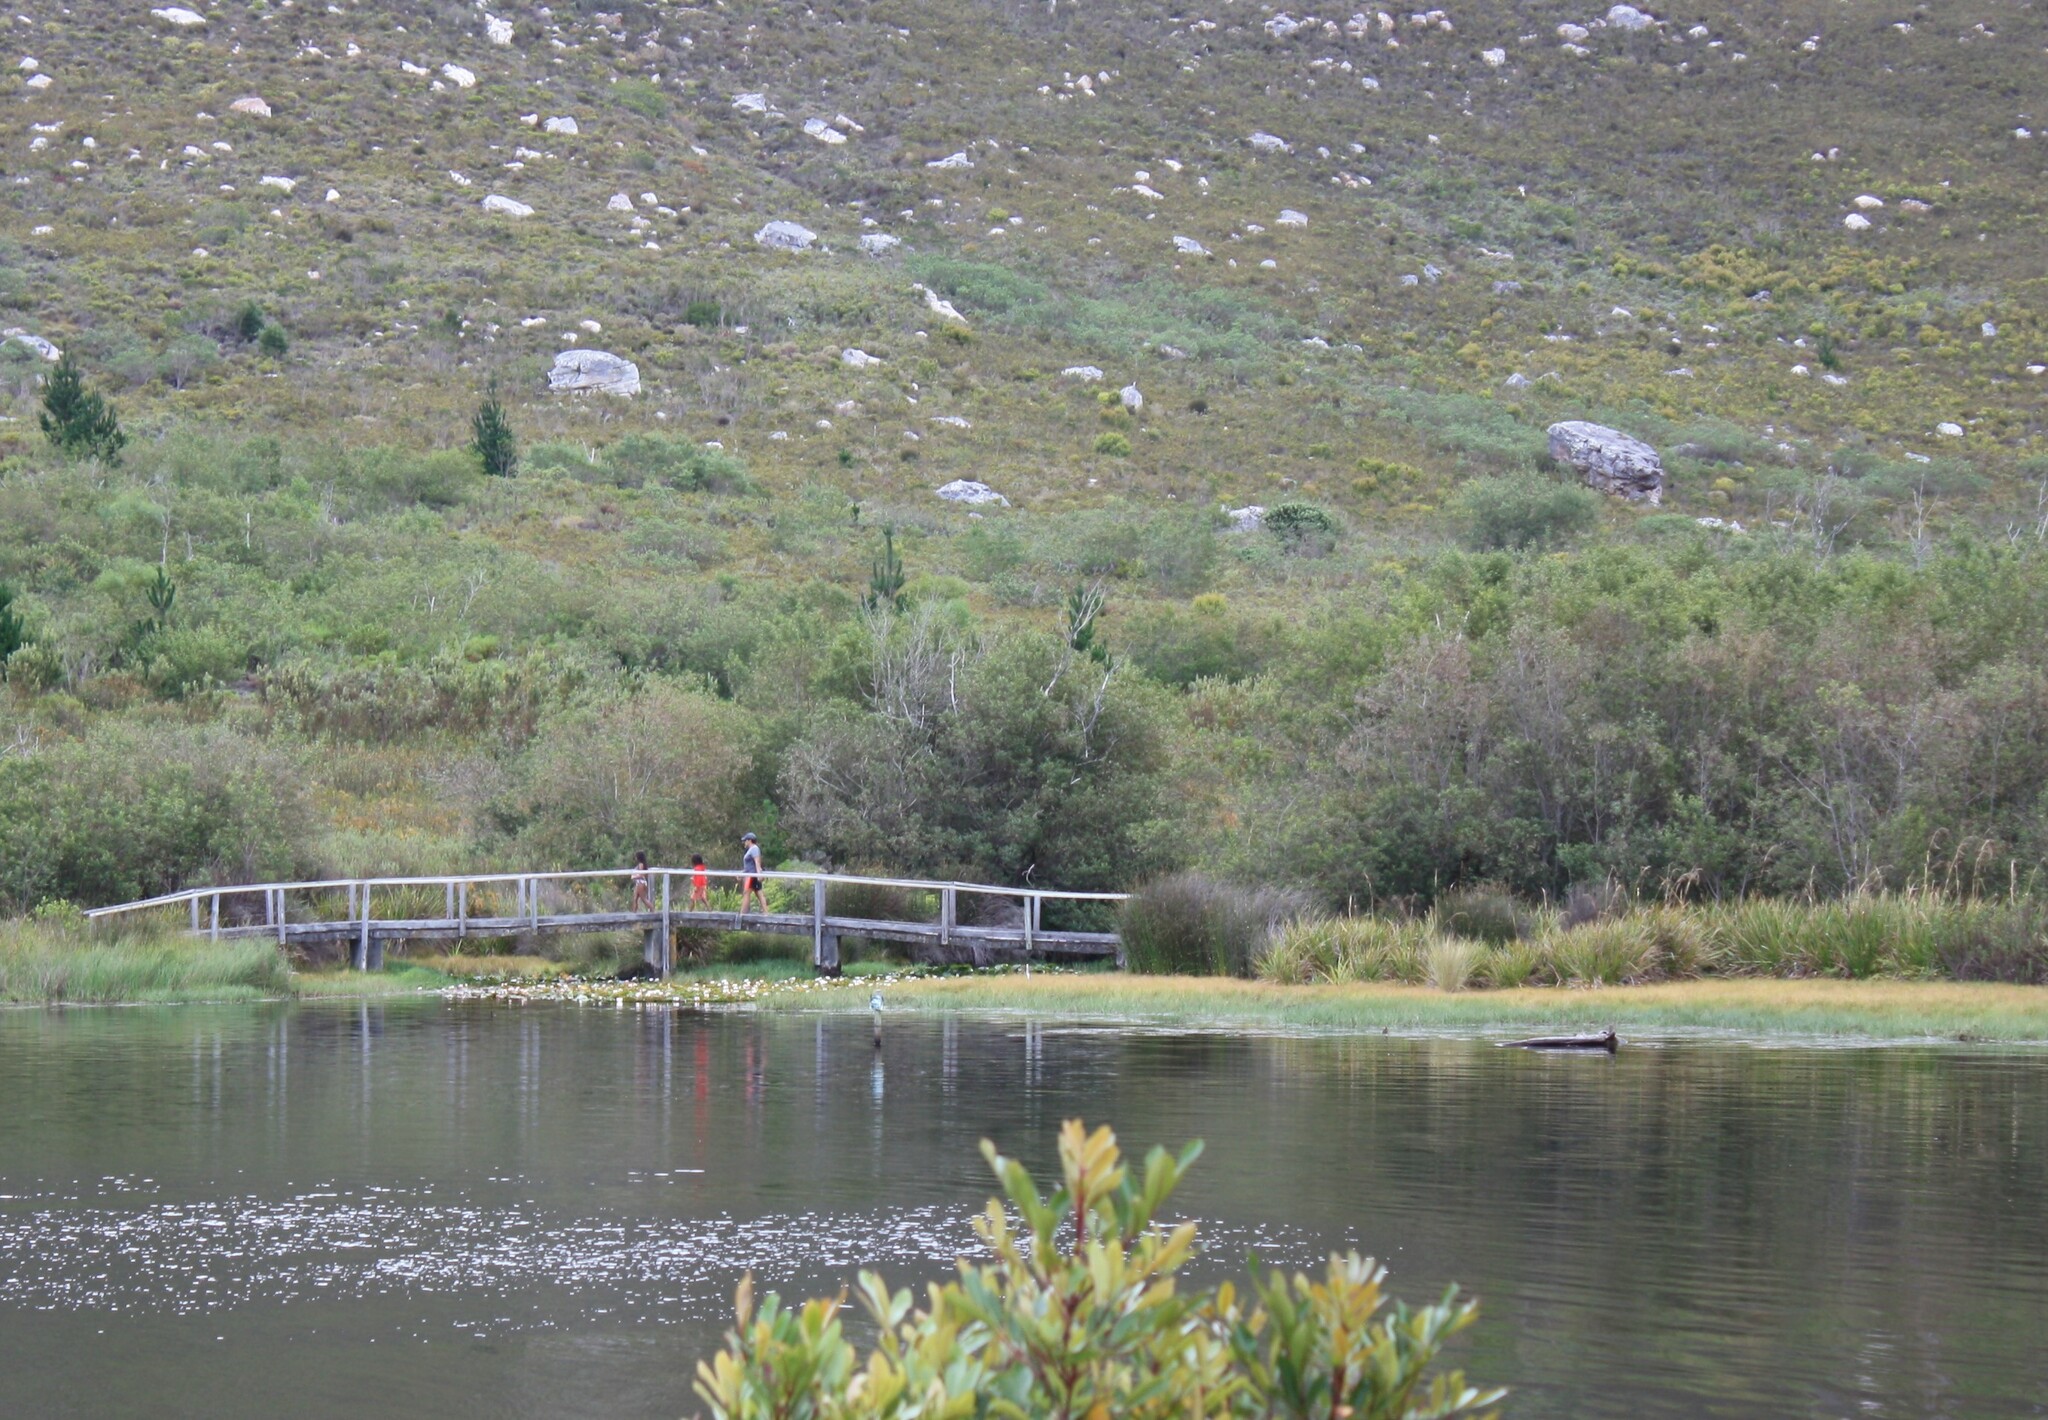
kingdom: Plantae
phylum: Tracheophyta
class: Magnoliopsida
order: Oxalidales
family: Cunoniaceae
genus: Cunonia
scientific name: Cunonia capensis
